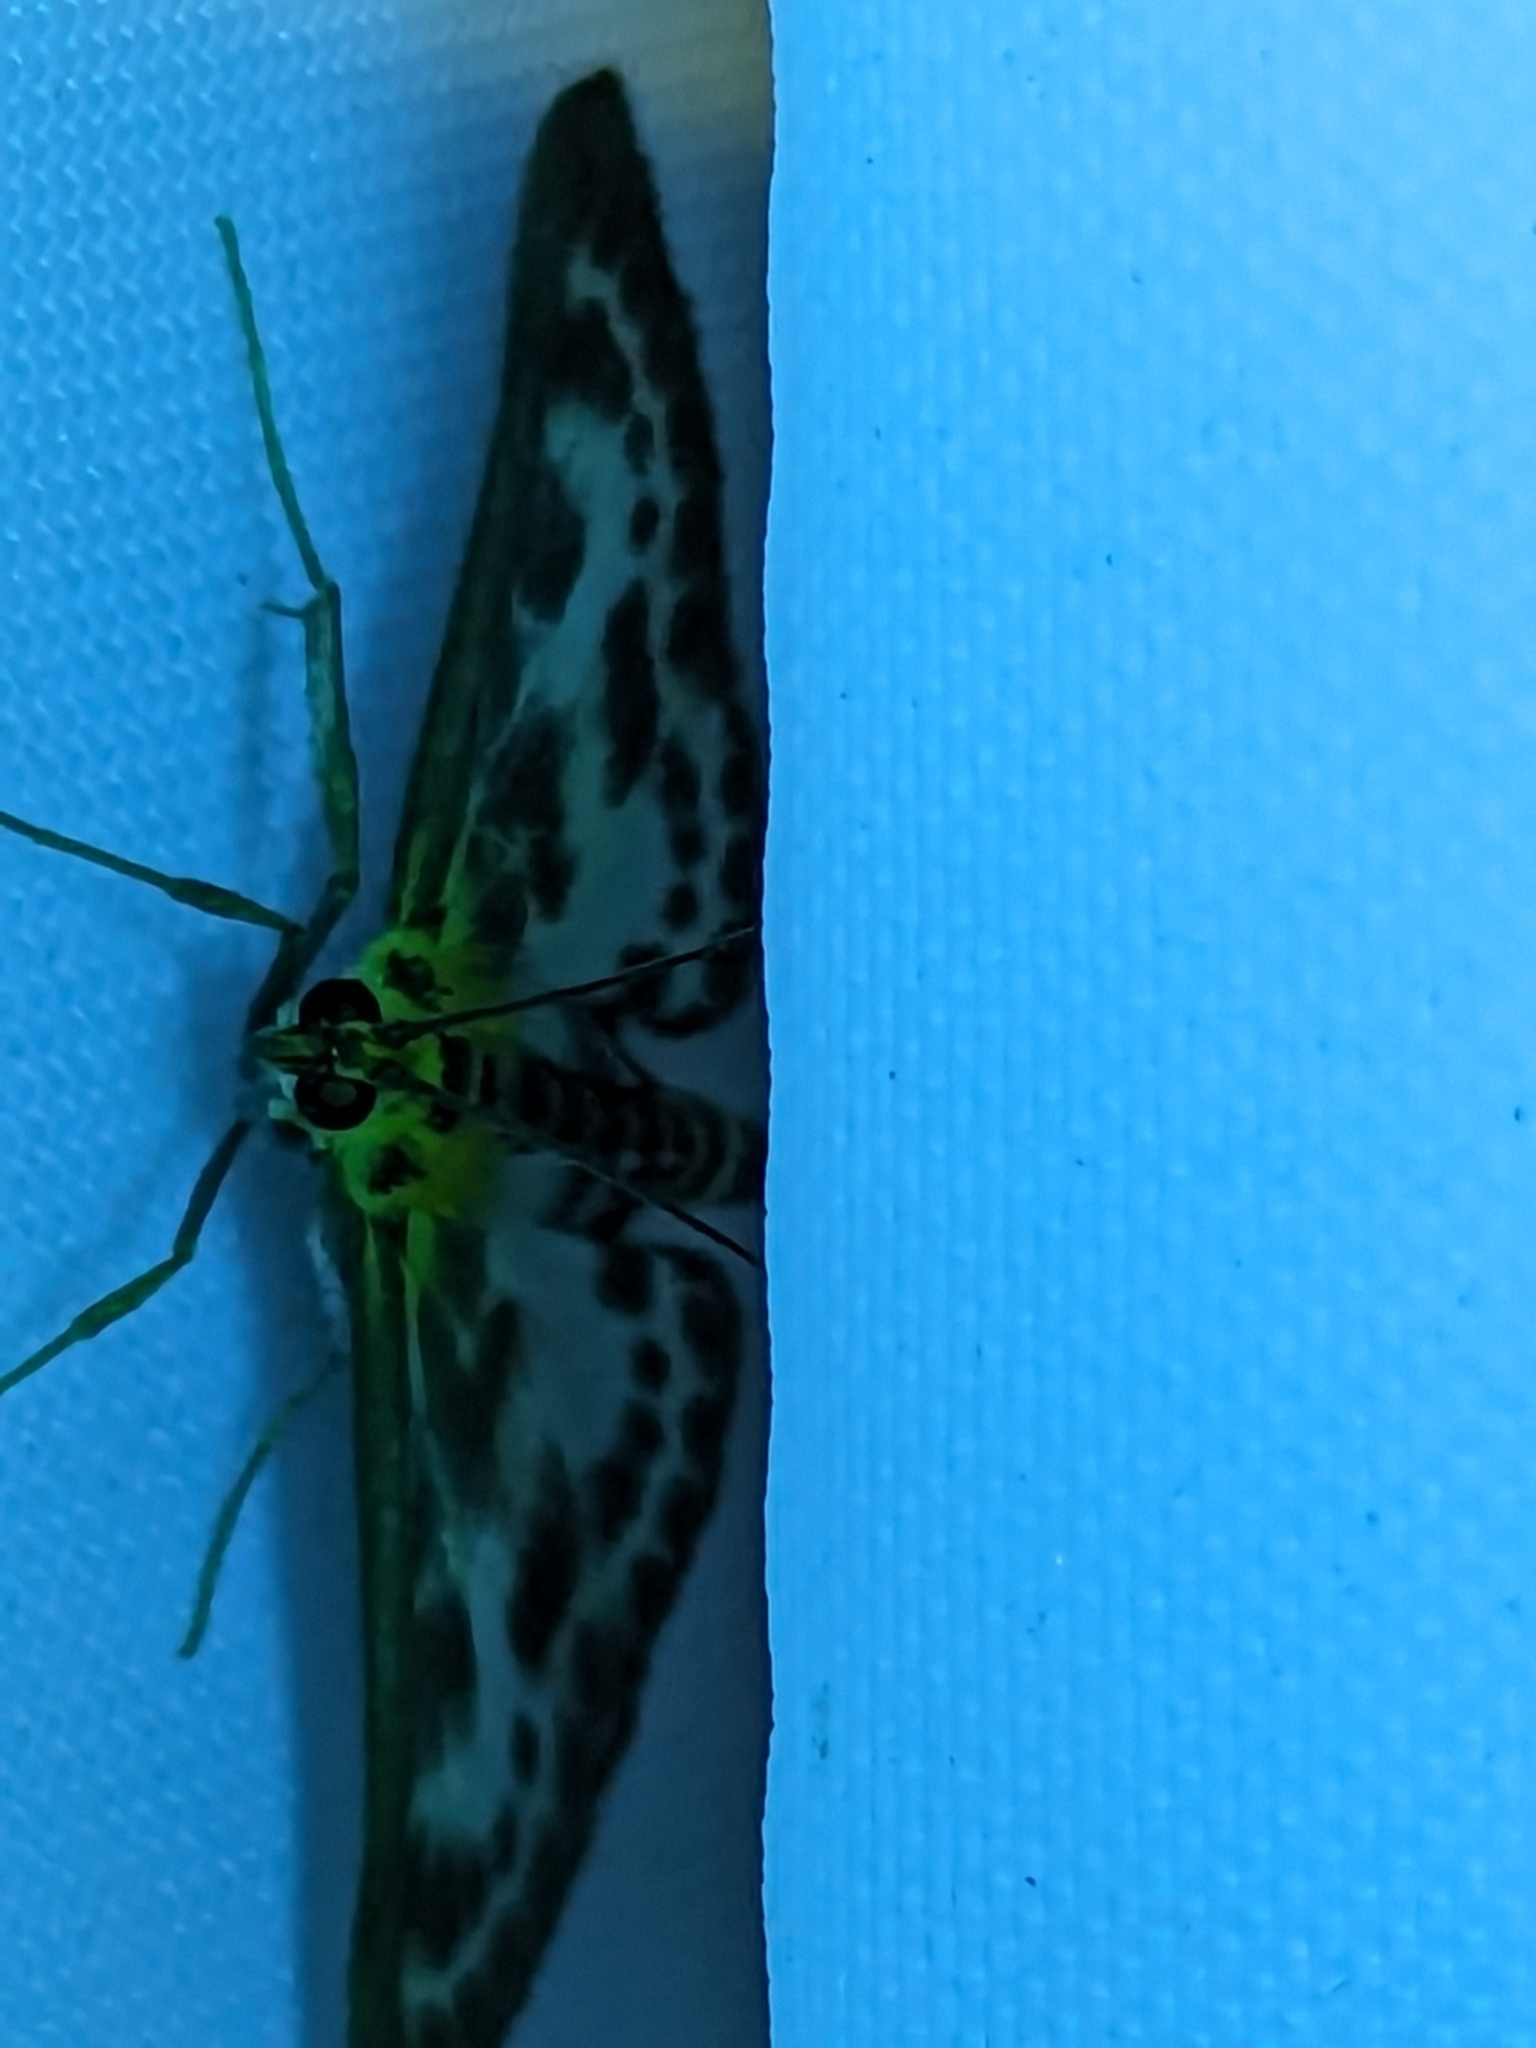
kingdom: Animalia
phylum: Arthropoda
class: Insecta
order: Lepidoptera
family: Crambidae
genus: Anania
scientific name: Anania hortulata
